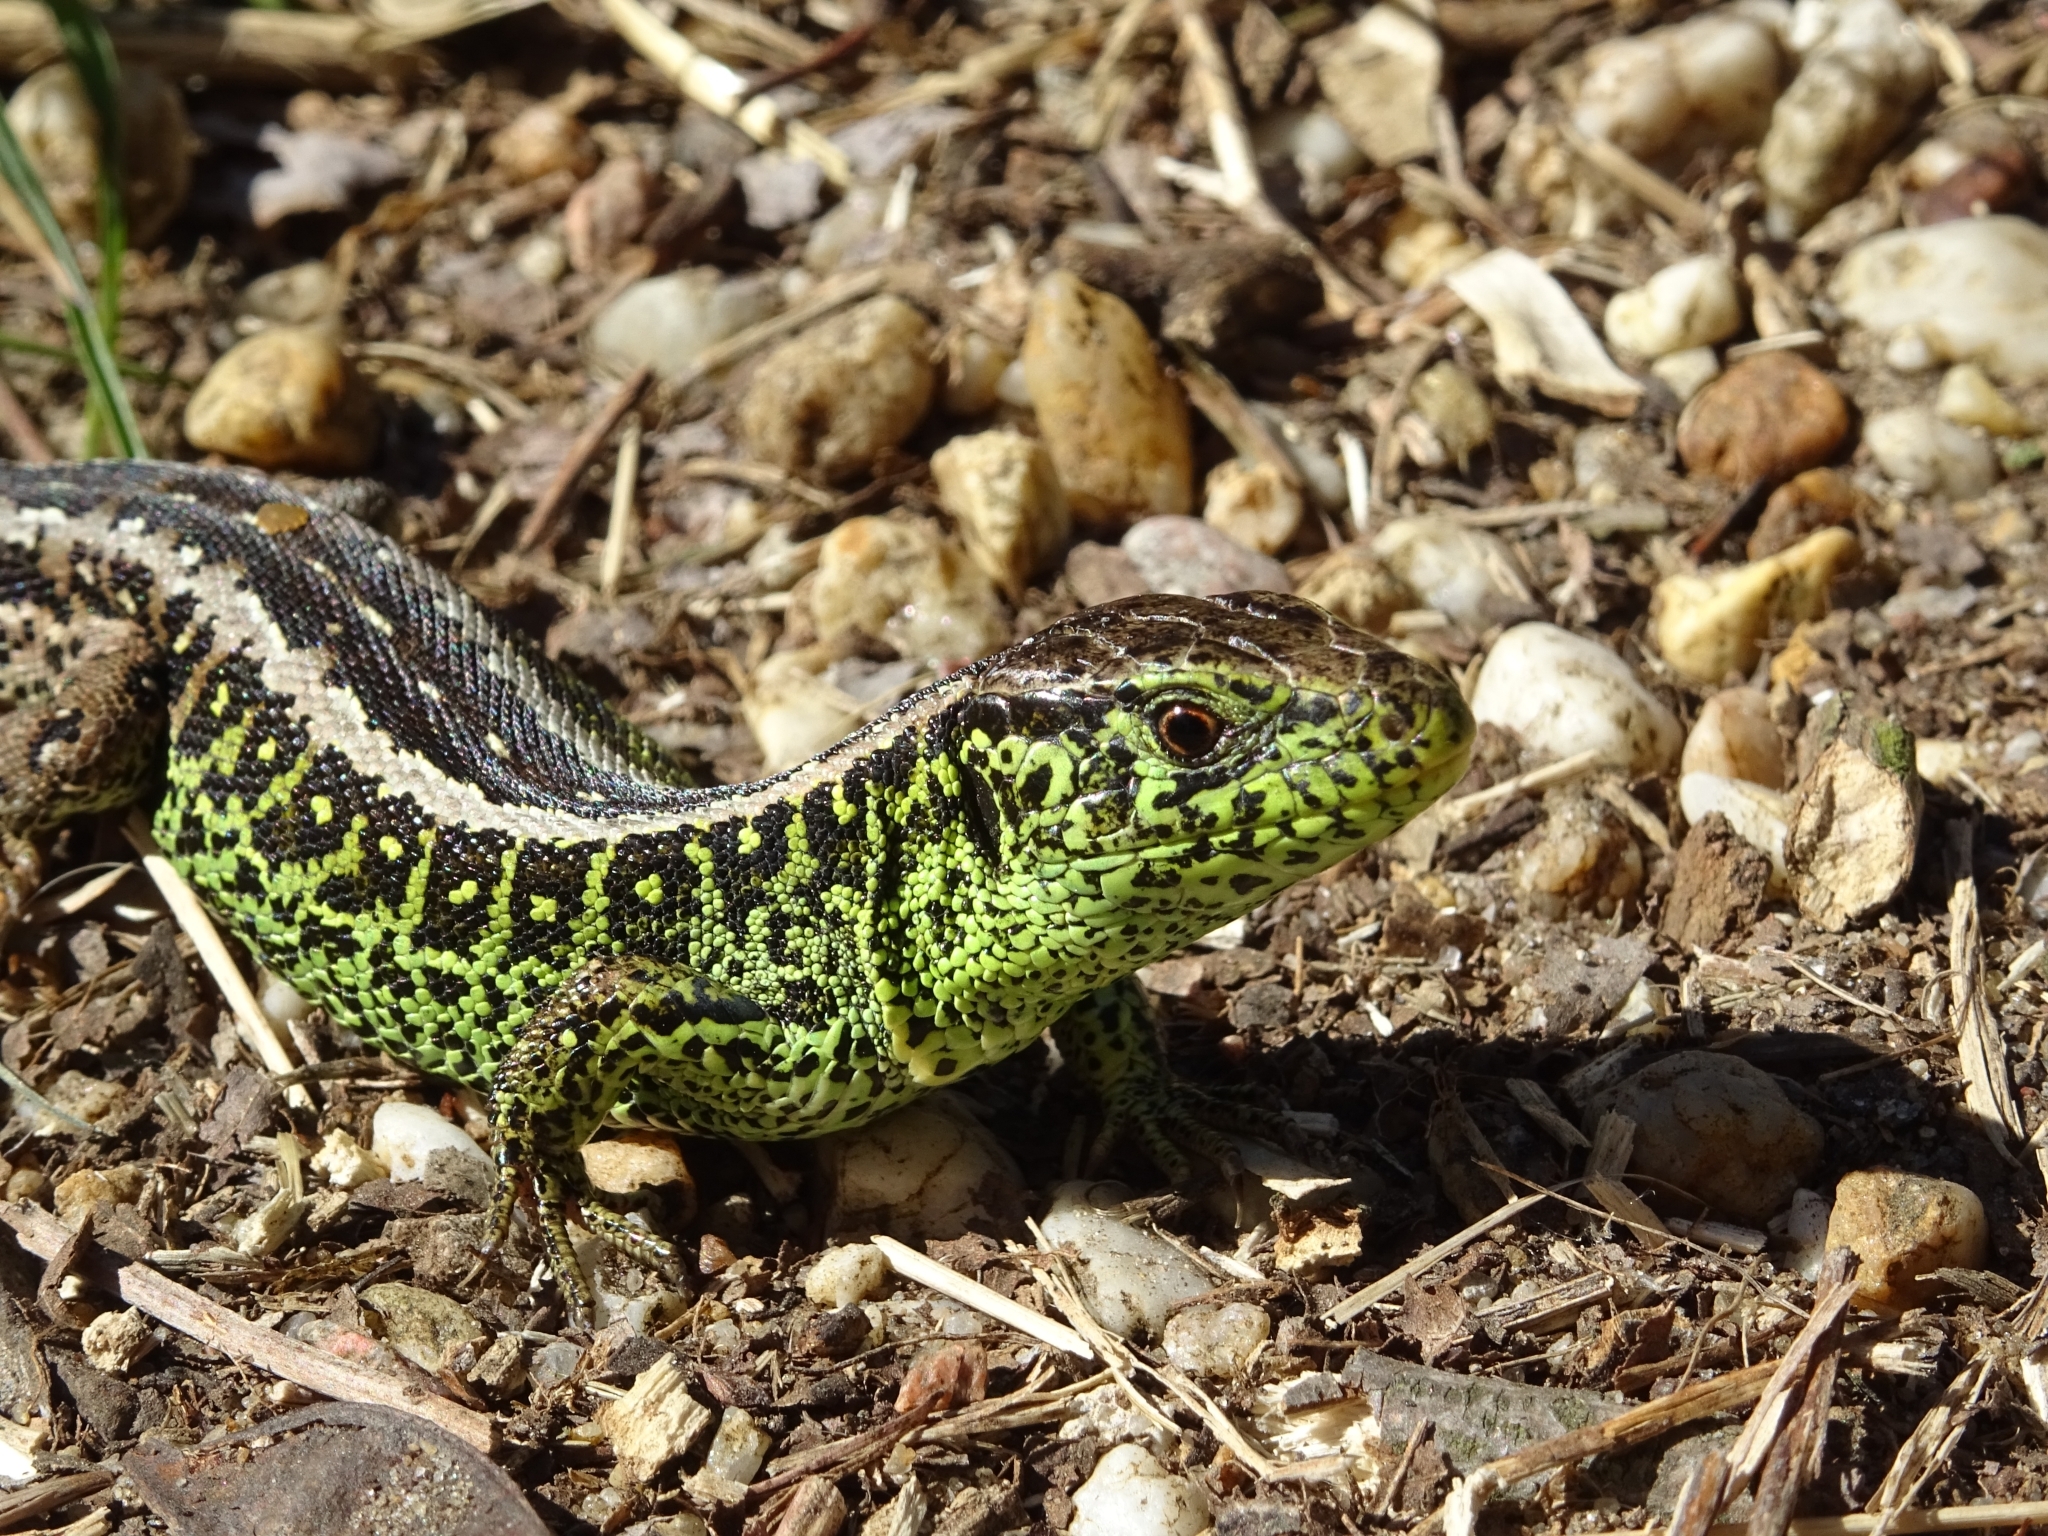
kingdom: Animalia
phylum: Chordata
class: Squamata
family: Lacertidae
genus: Lacerta
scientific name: Lacerta agilis
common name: Sand lizard
